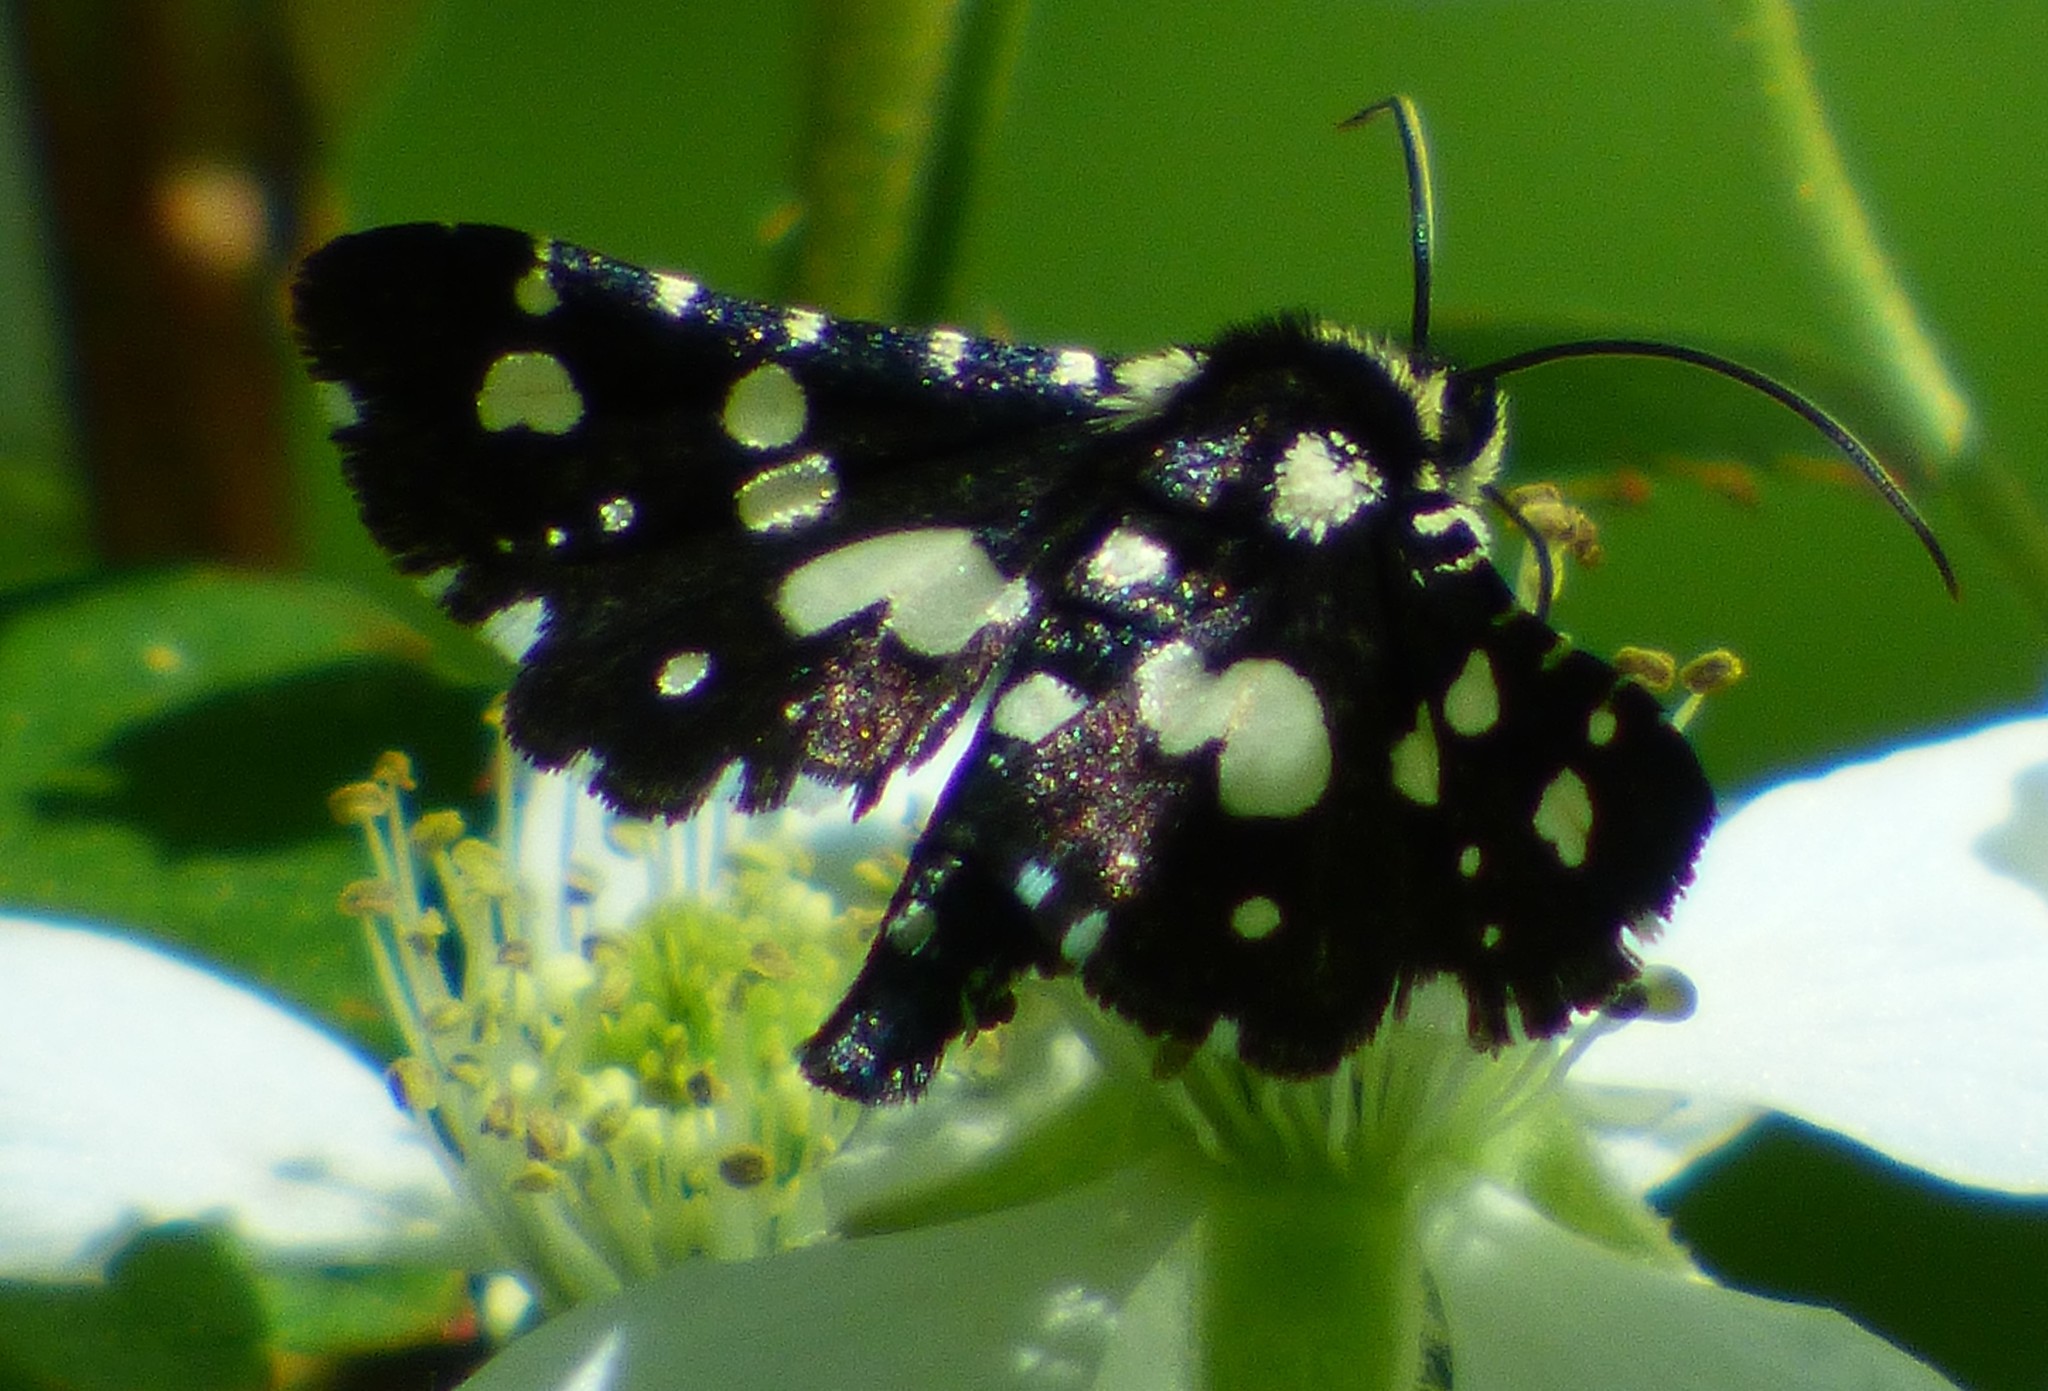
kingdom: Animalia
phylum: Arthropoda
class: Insecta
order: Lepidoptera
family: Thyrididae
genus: Pseudothyris
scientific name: Pseudothyris sepulchralis
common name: Mournful thyris moth
